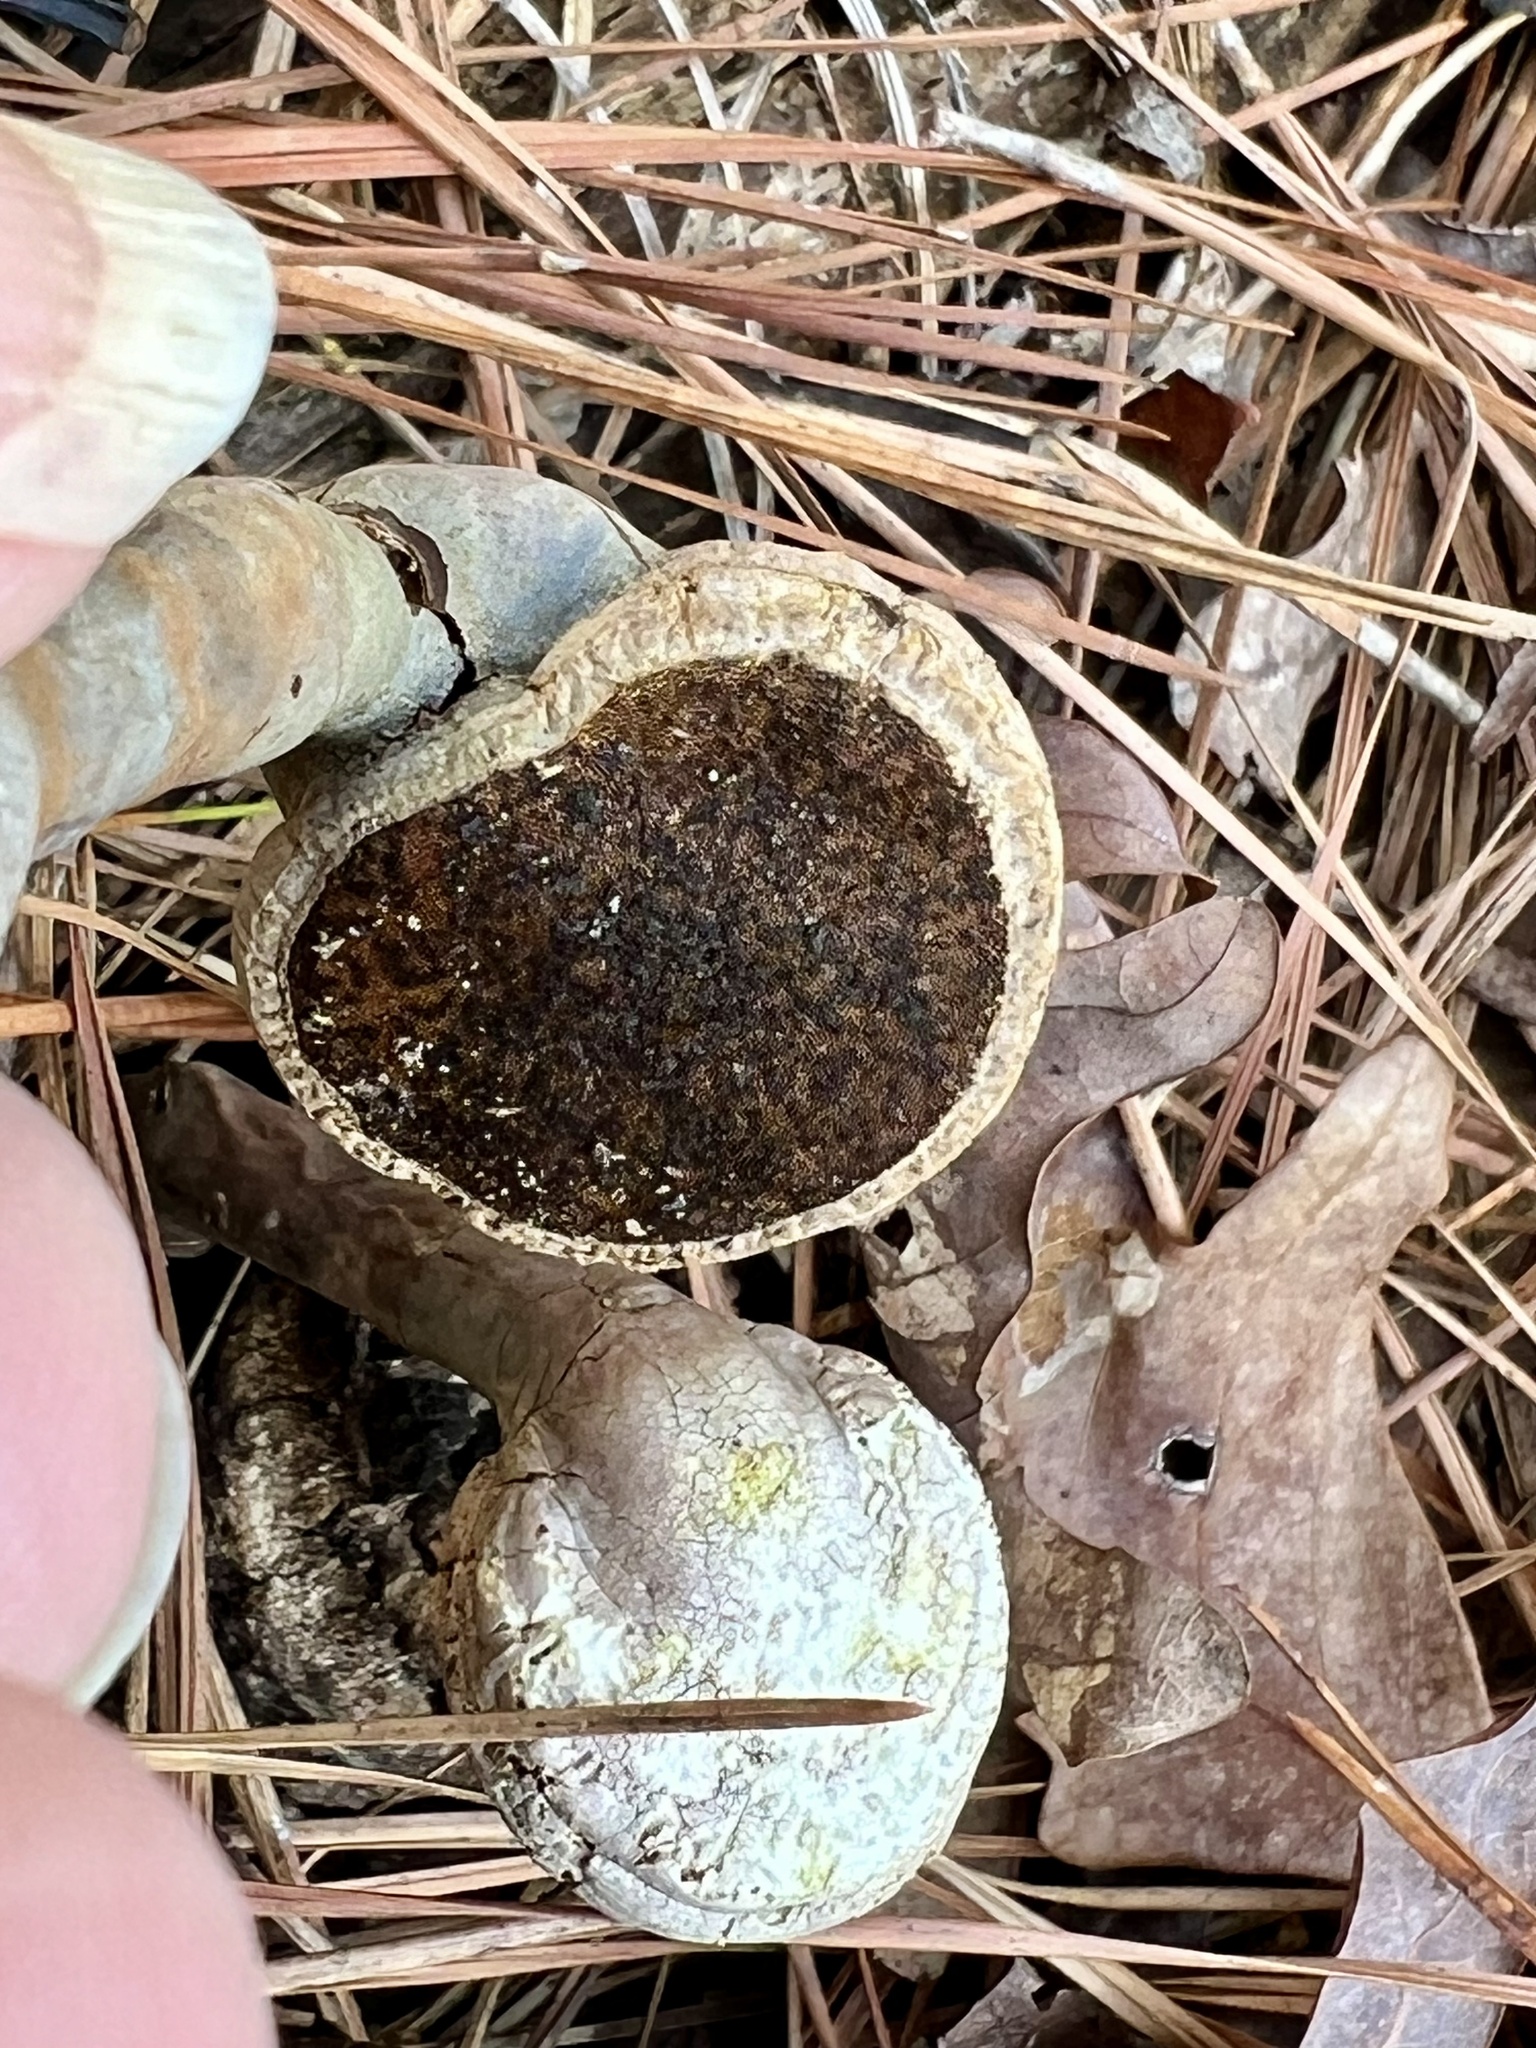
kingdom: Fungi
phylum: Basidiomycota
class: Agaricomycetes
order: Polyporales
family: Polyporaceae
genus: Ganoderma
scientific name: Ganoderma curtisii
